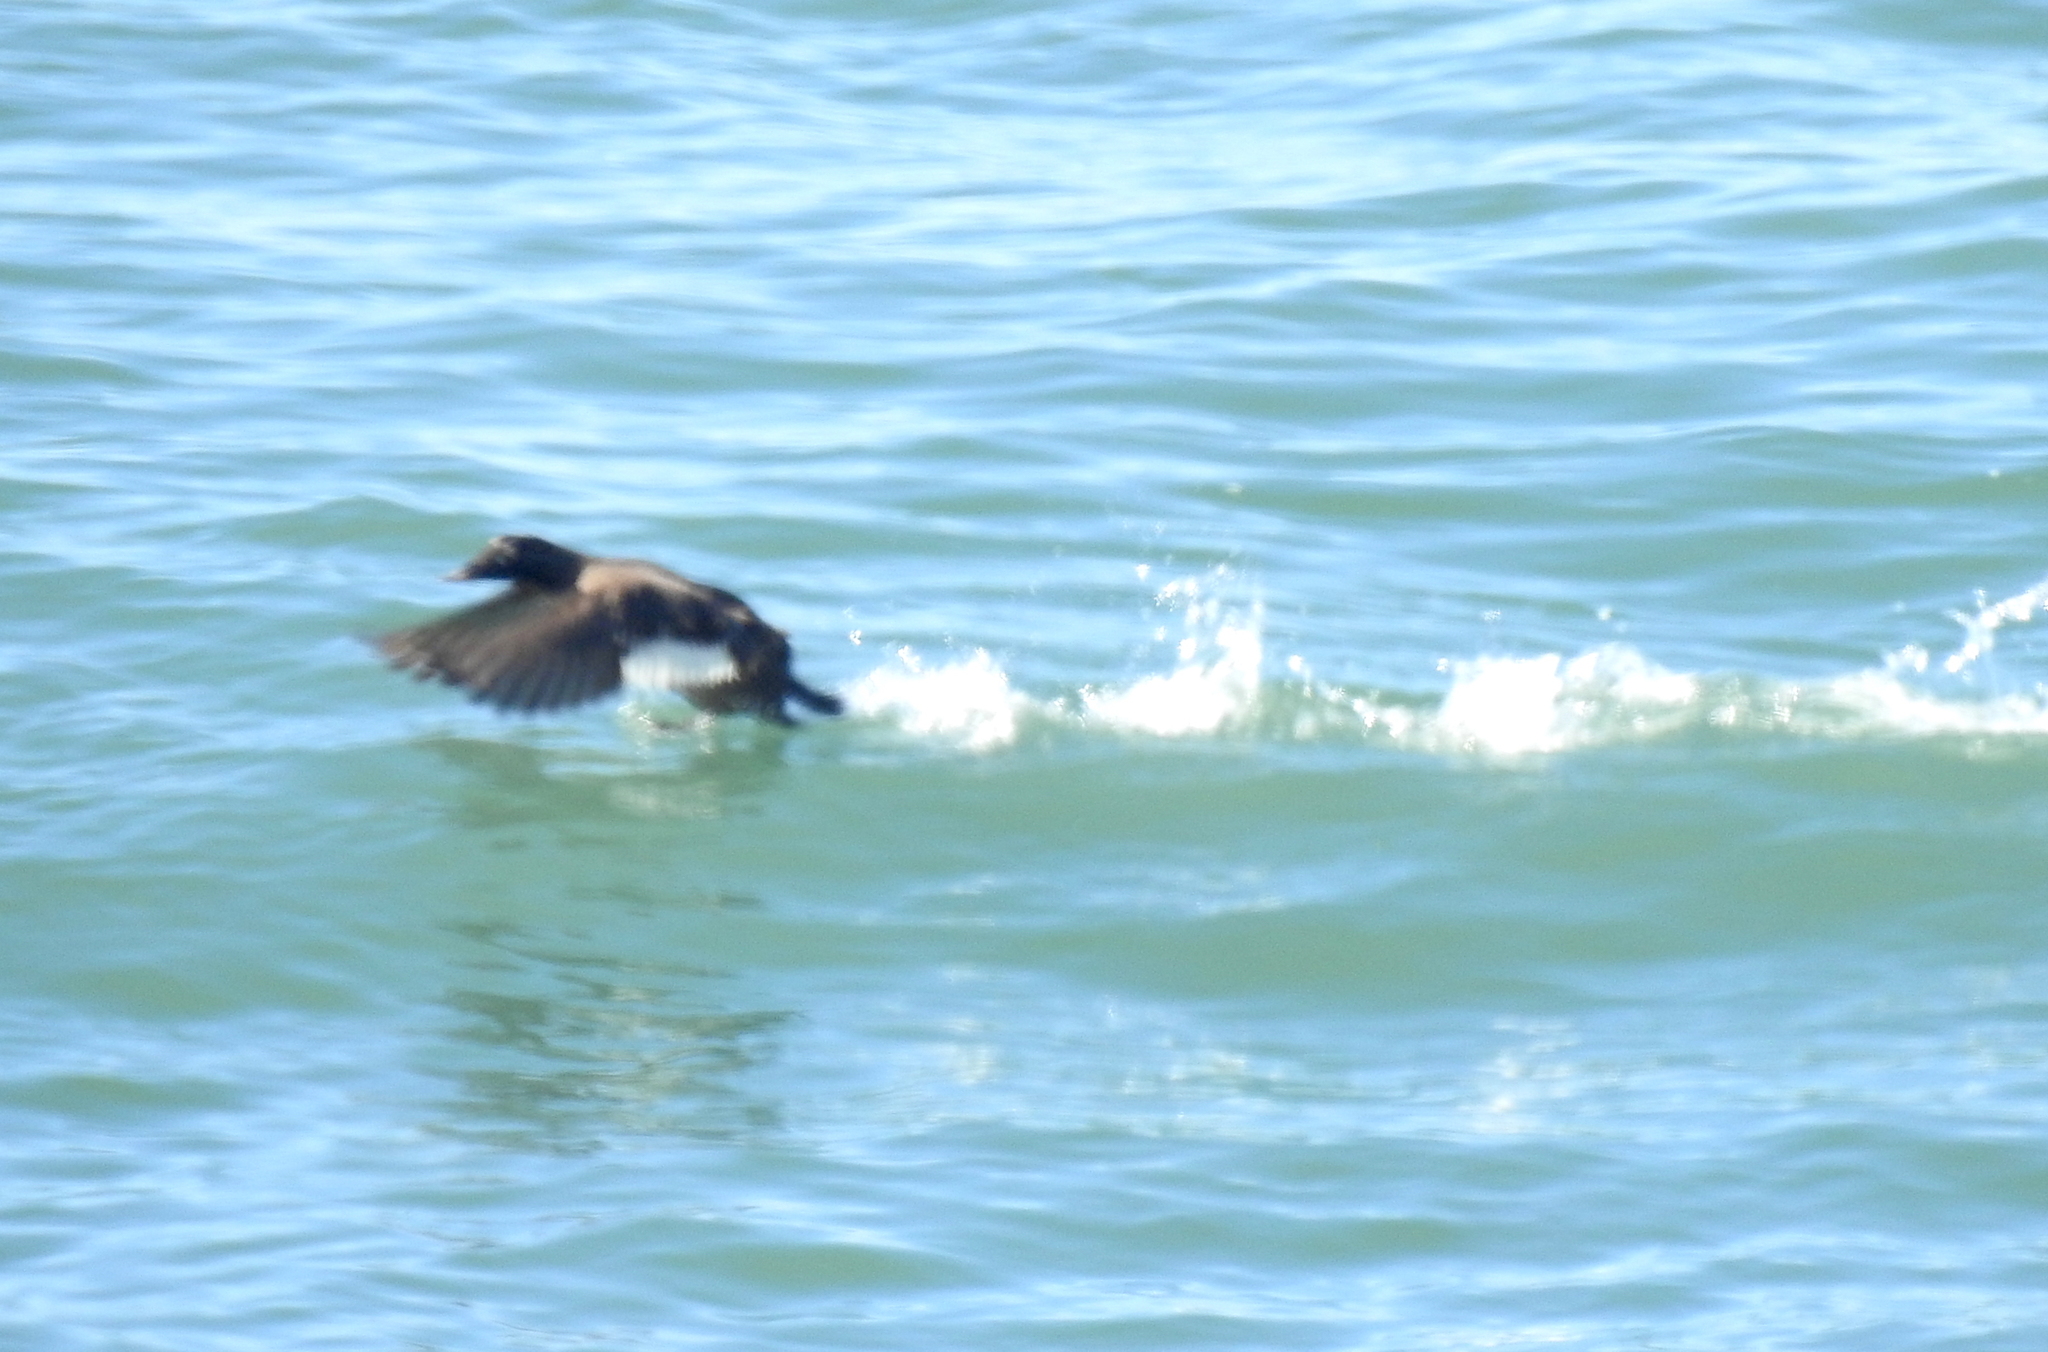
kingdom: Animalia
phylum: Chordata
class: Aves
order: Anseriformes
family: Anatidae
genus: Melanitta
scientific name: Melanitta deglandi
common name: White-winged scoter
